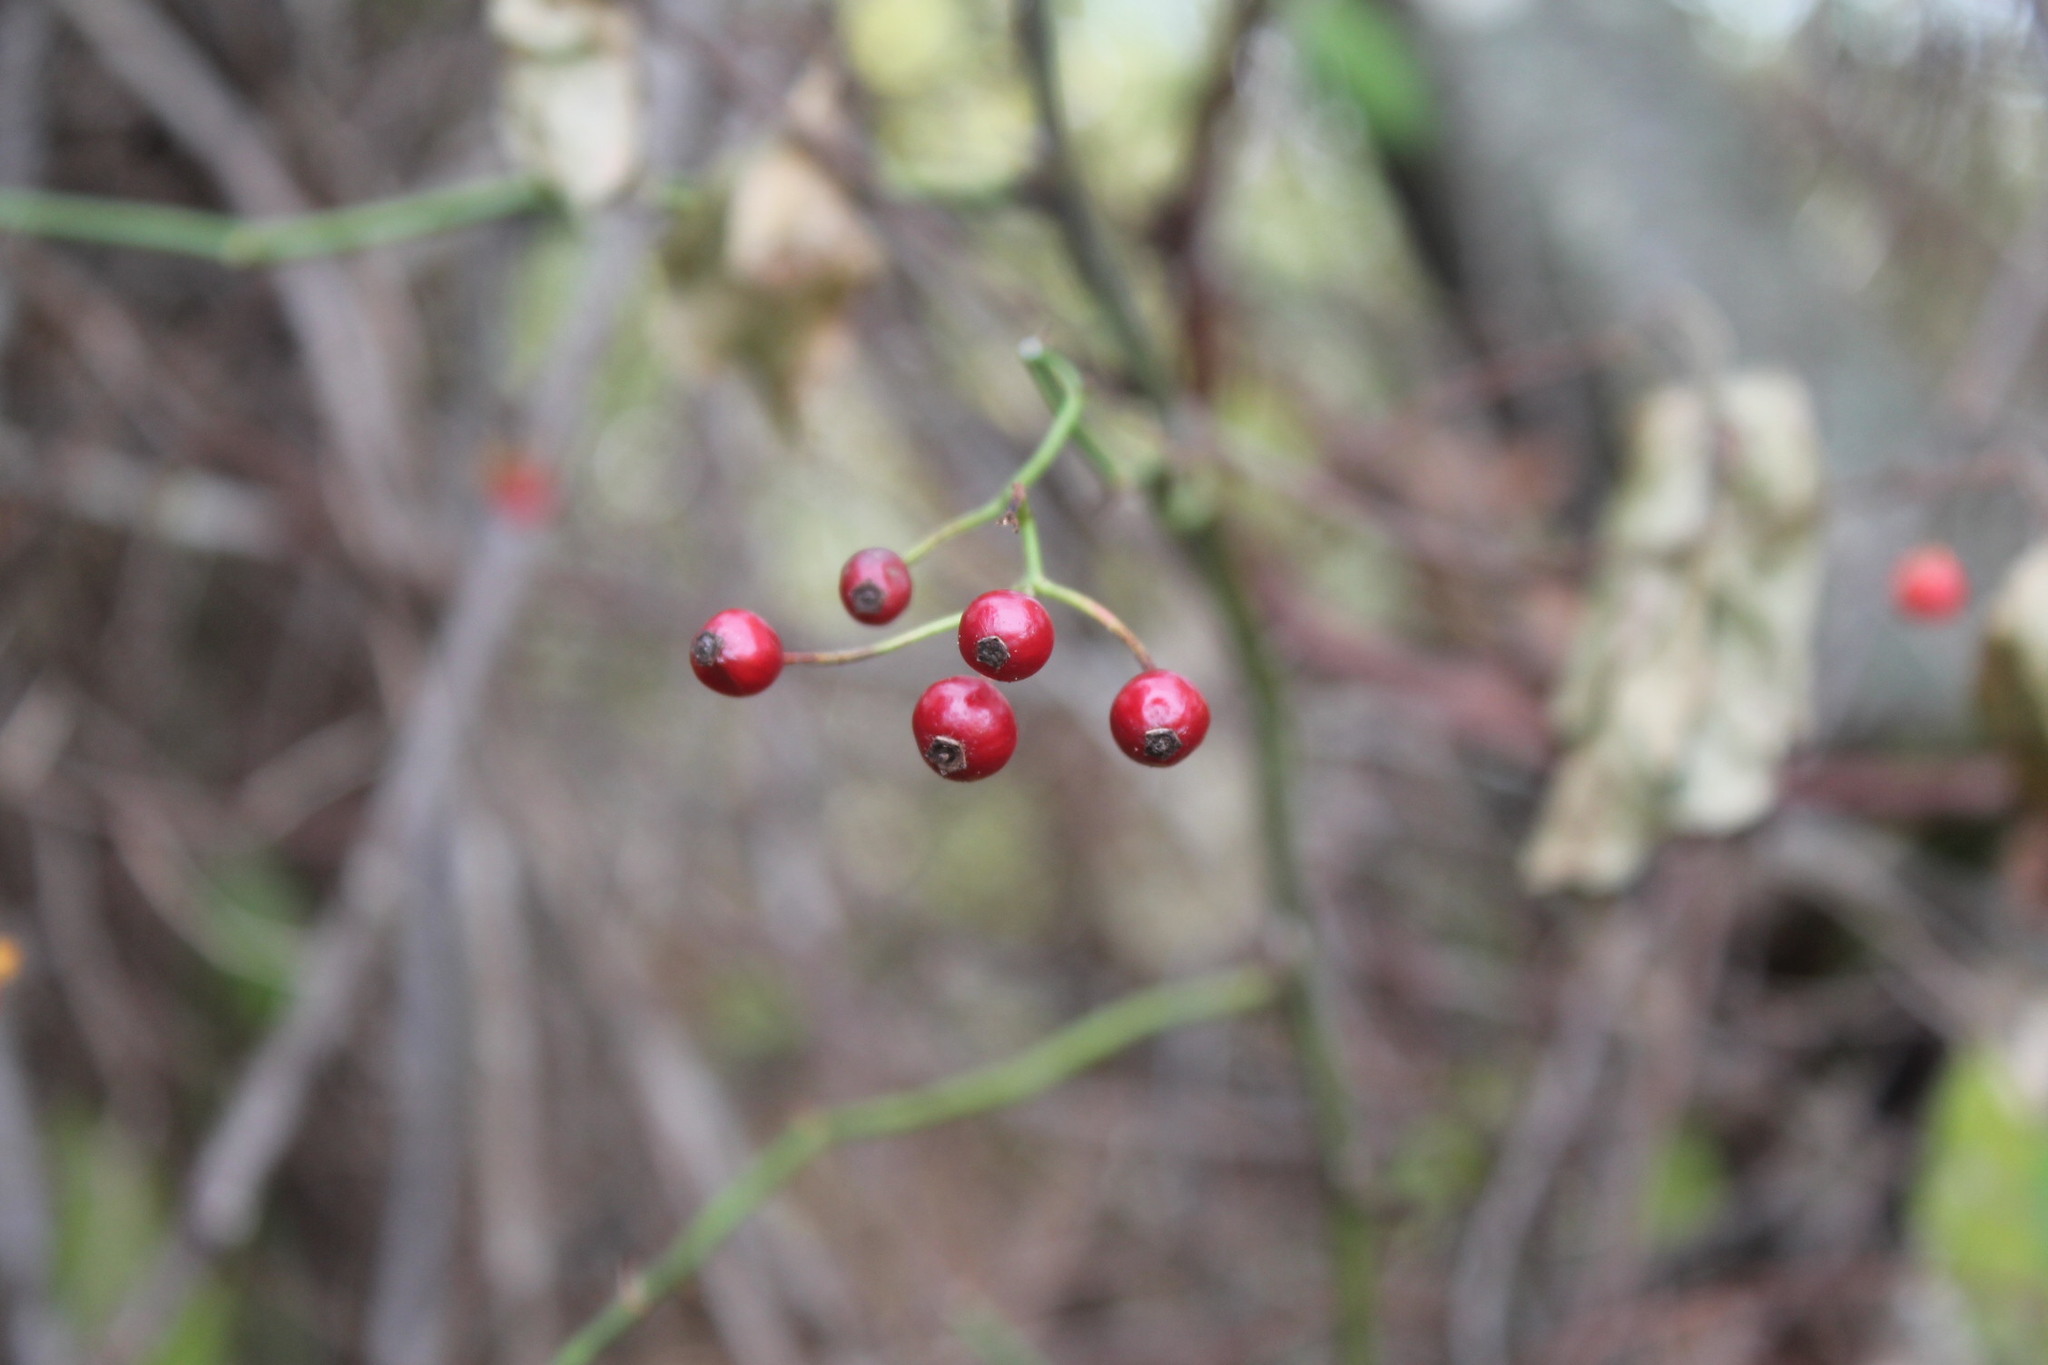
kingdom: Plantae
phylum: Tracheophyta
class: Magnoliopsida
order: Rosales
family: Rosaceae
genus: Rosa
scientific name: Rosa multiflora
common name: Multiflora rose
